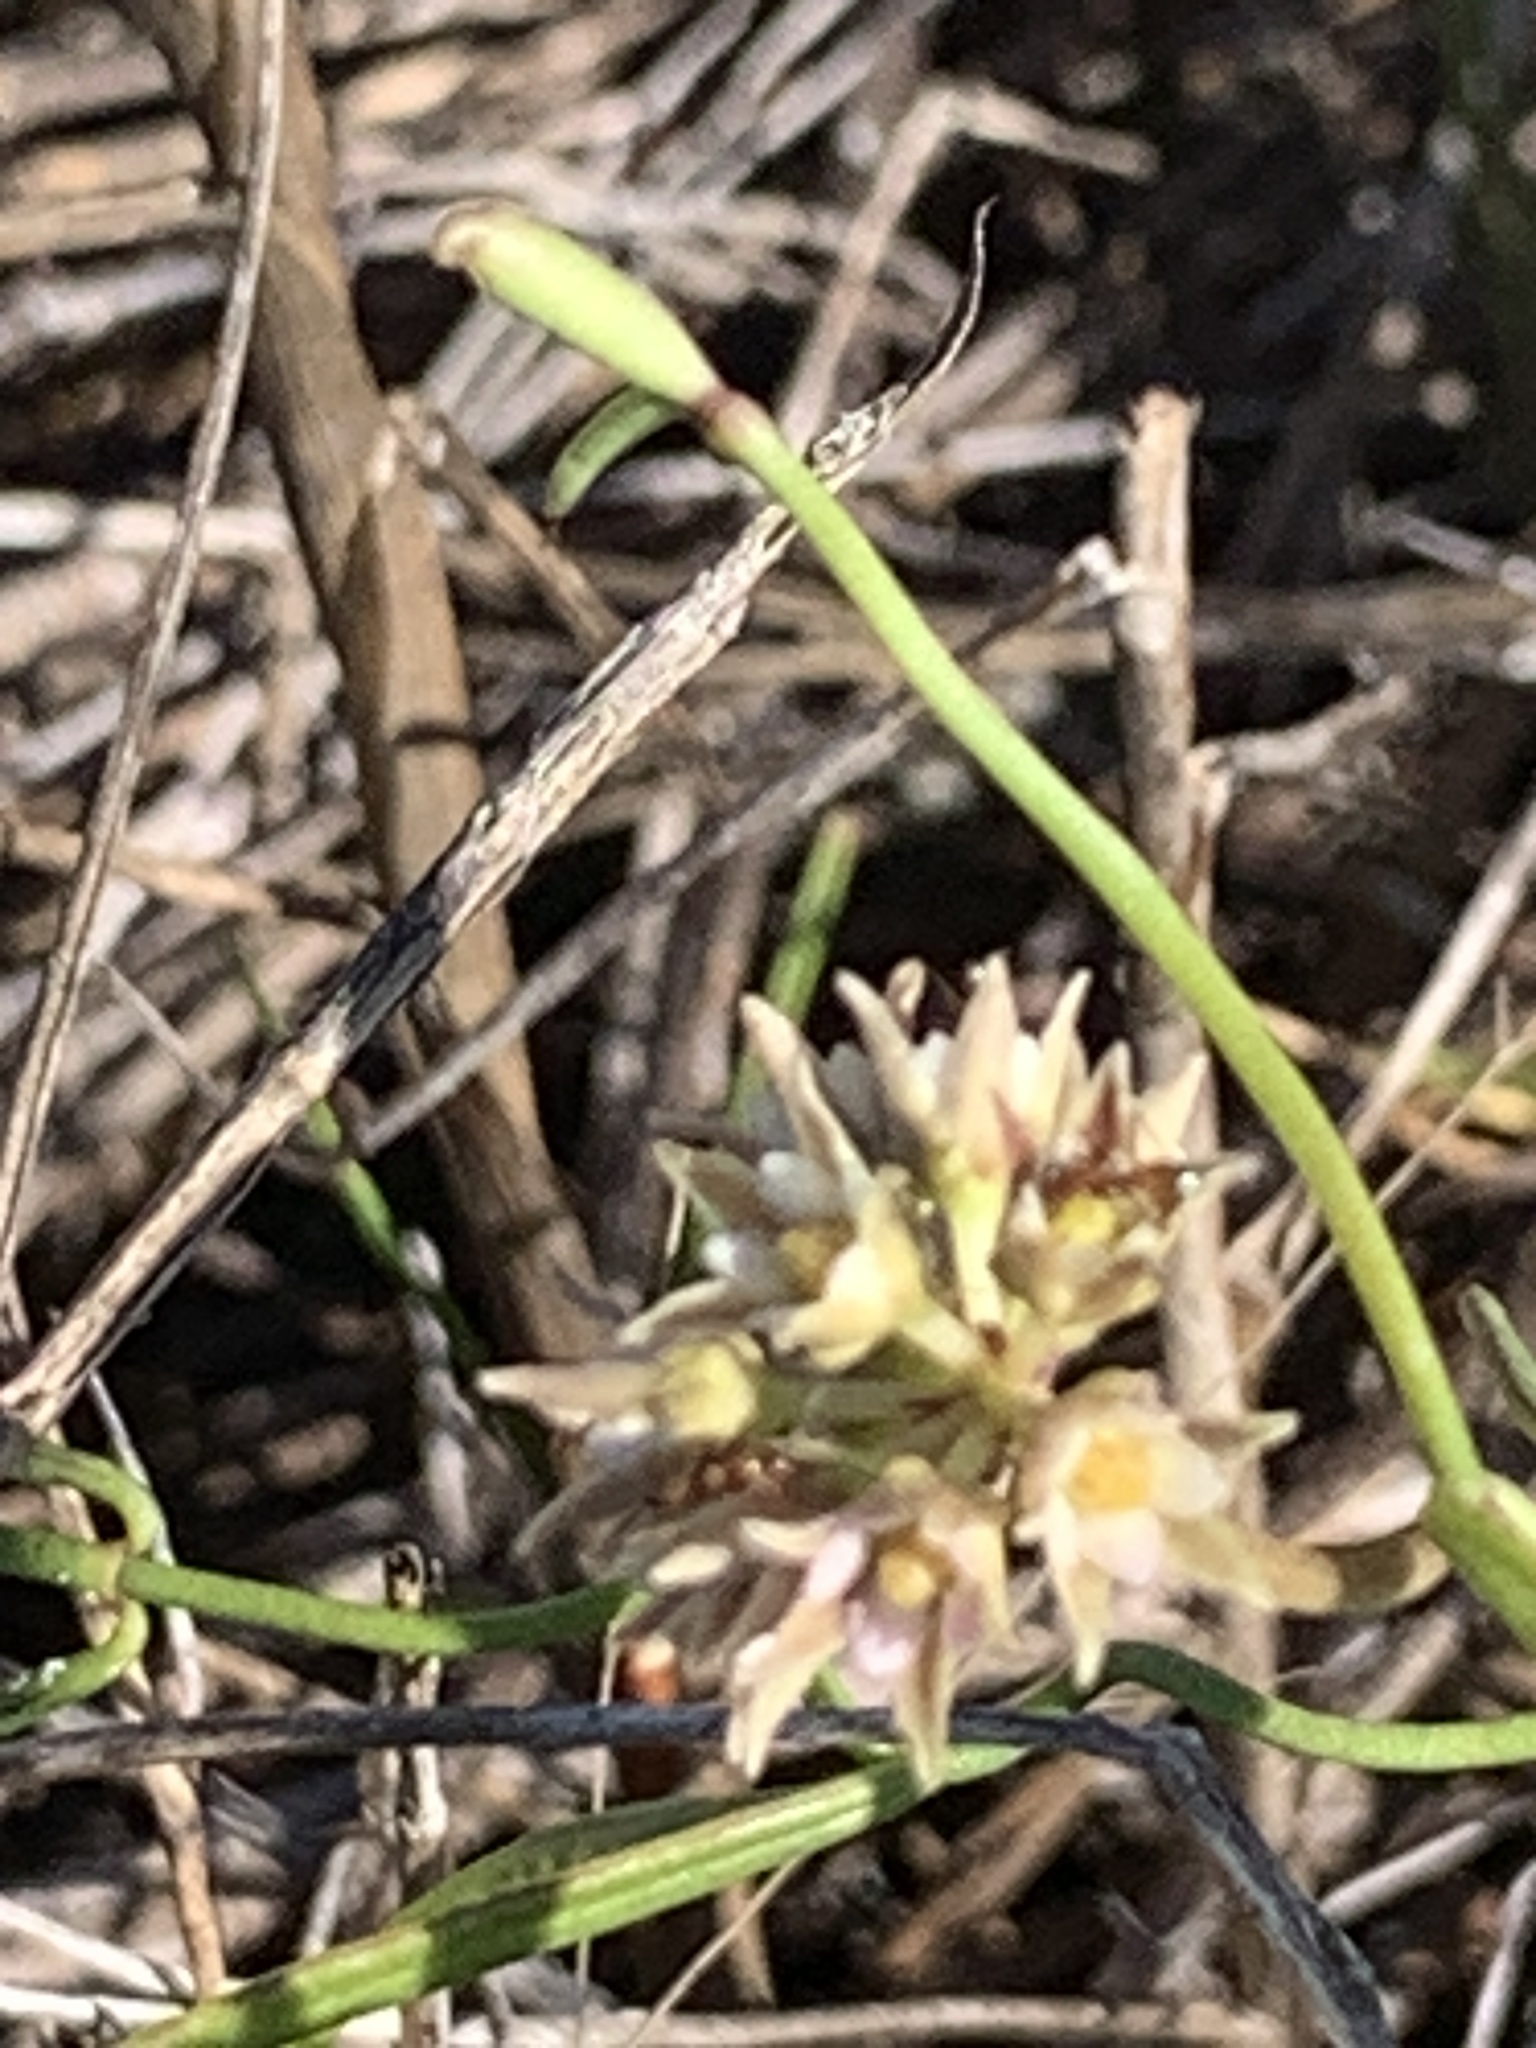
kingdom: Plantae
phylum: Tracheophyta
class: Magnoliopsida
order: Gentianales
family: Apocynaceae
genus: Pattalias
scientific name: Pattalias
